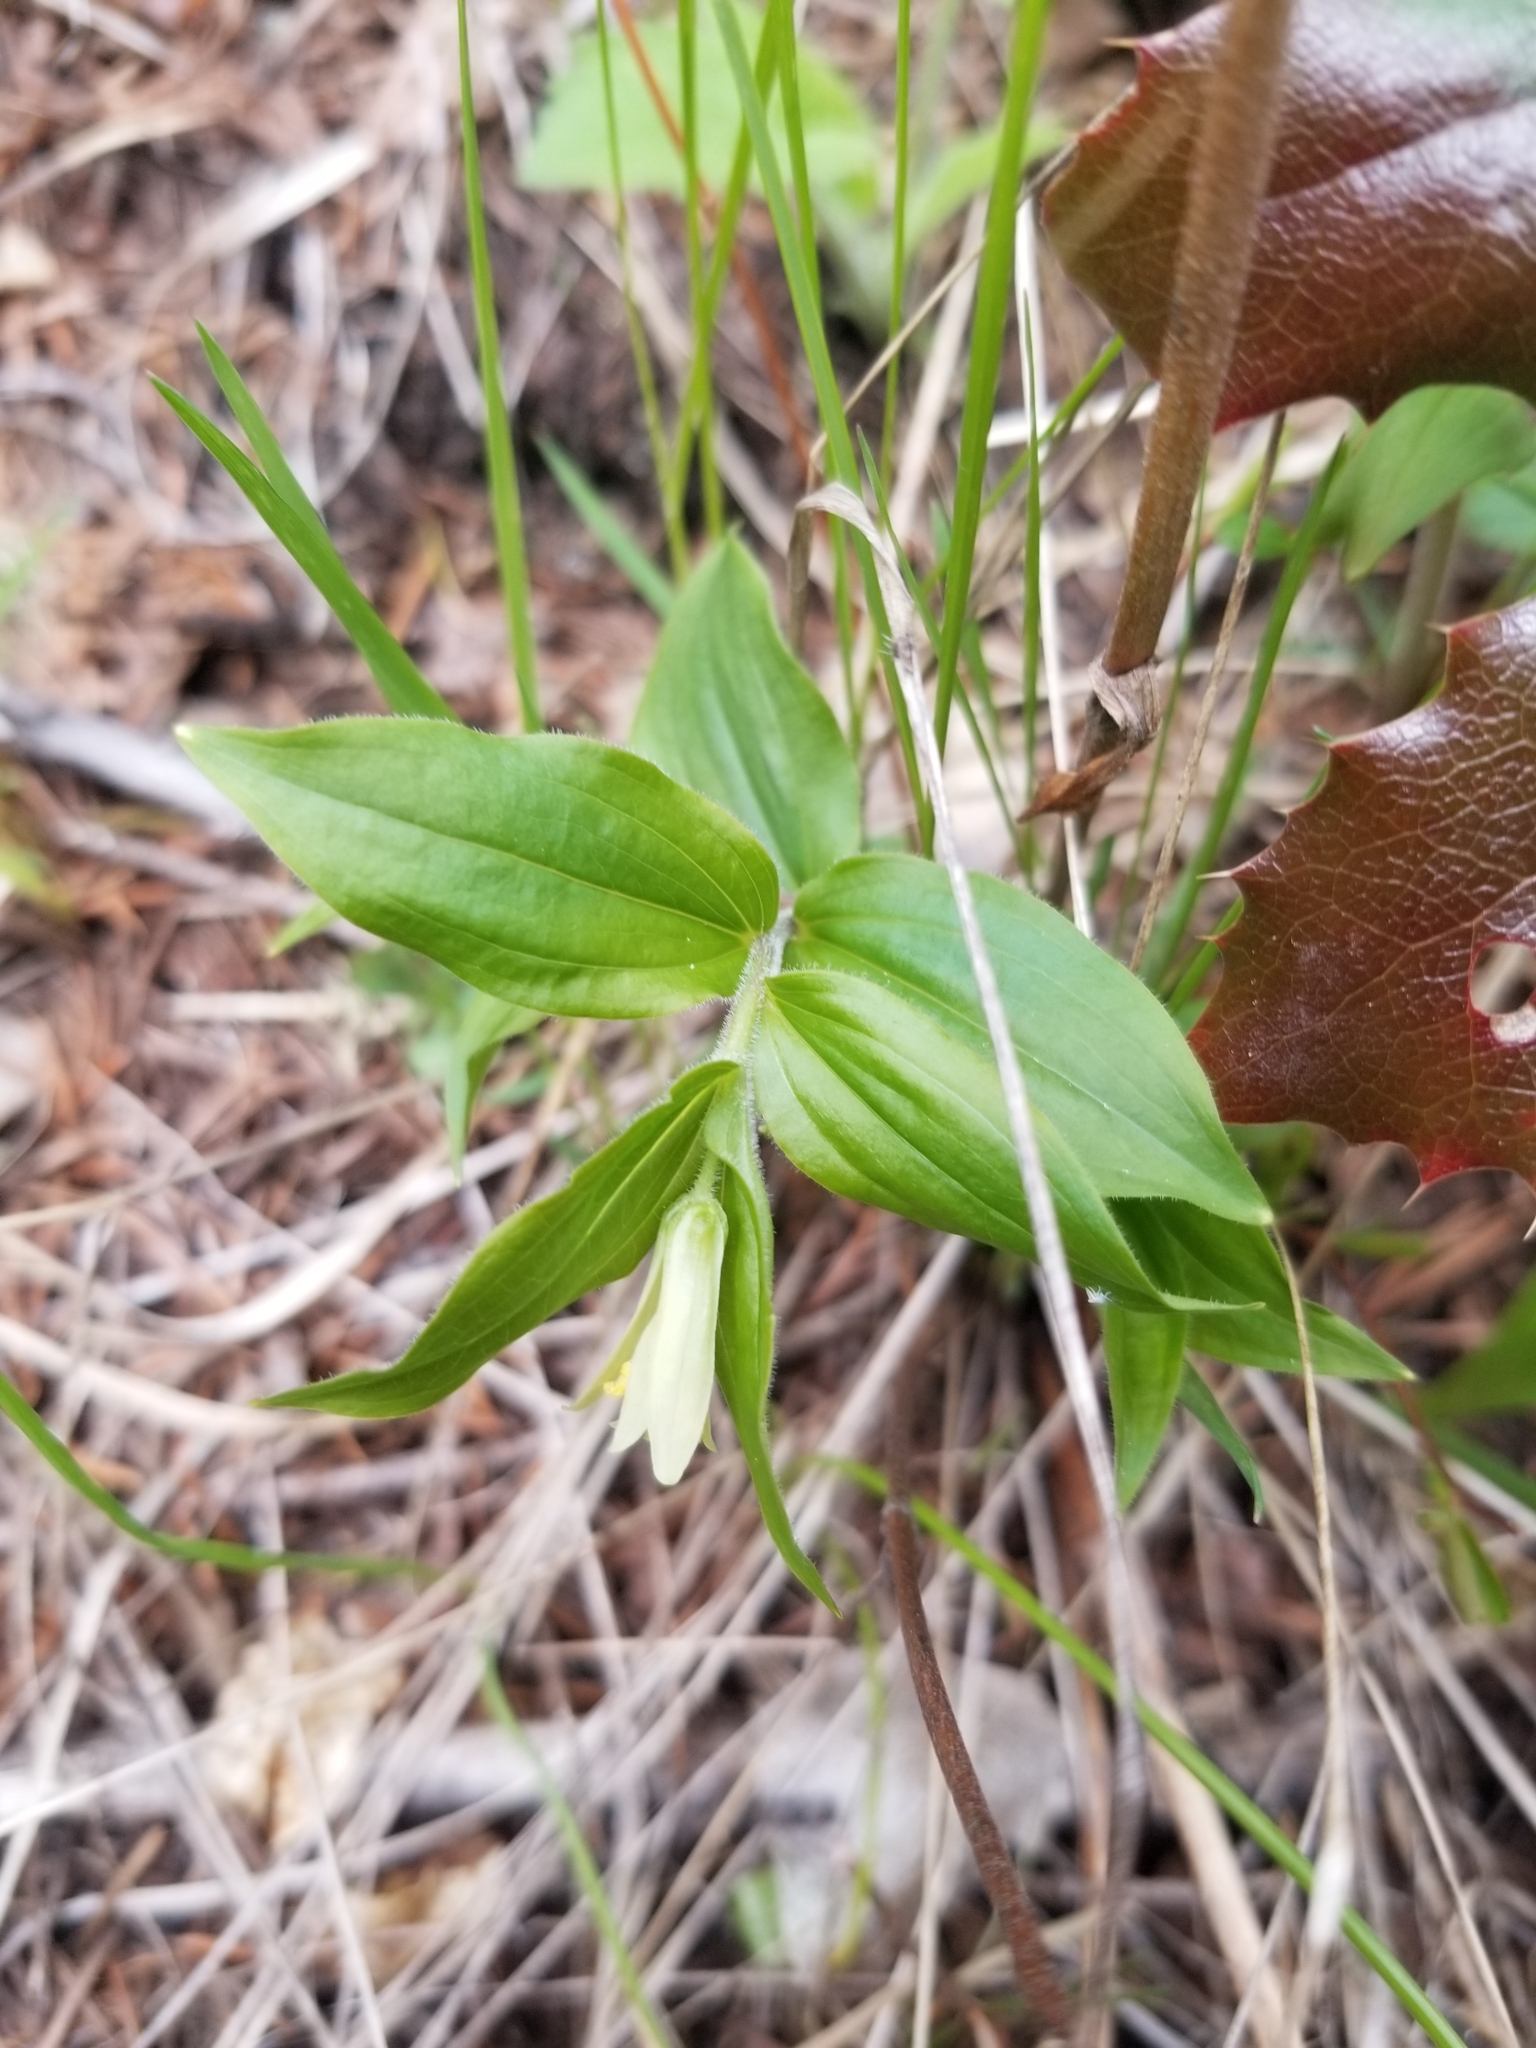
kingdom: Plantae
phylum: Tracheophyta
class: Liliopsida
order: Liliales
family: Liliaceae
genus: Prosartes
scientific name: Prosartes trachycarpa
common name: Rough-fruit fairy-bells
